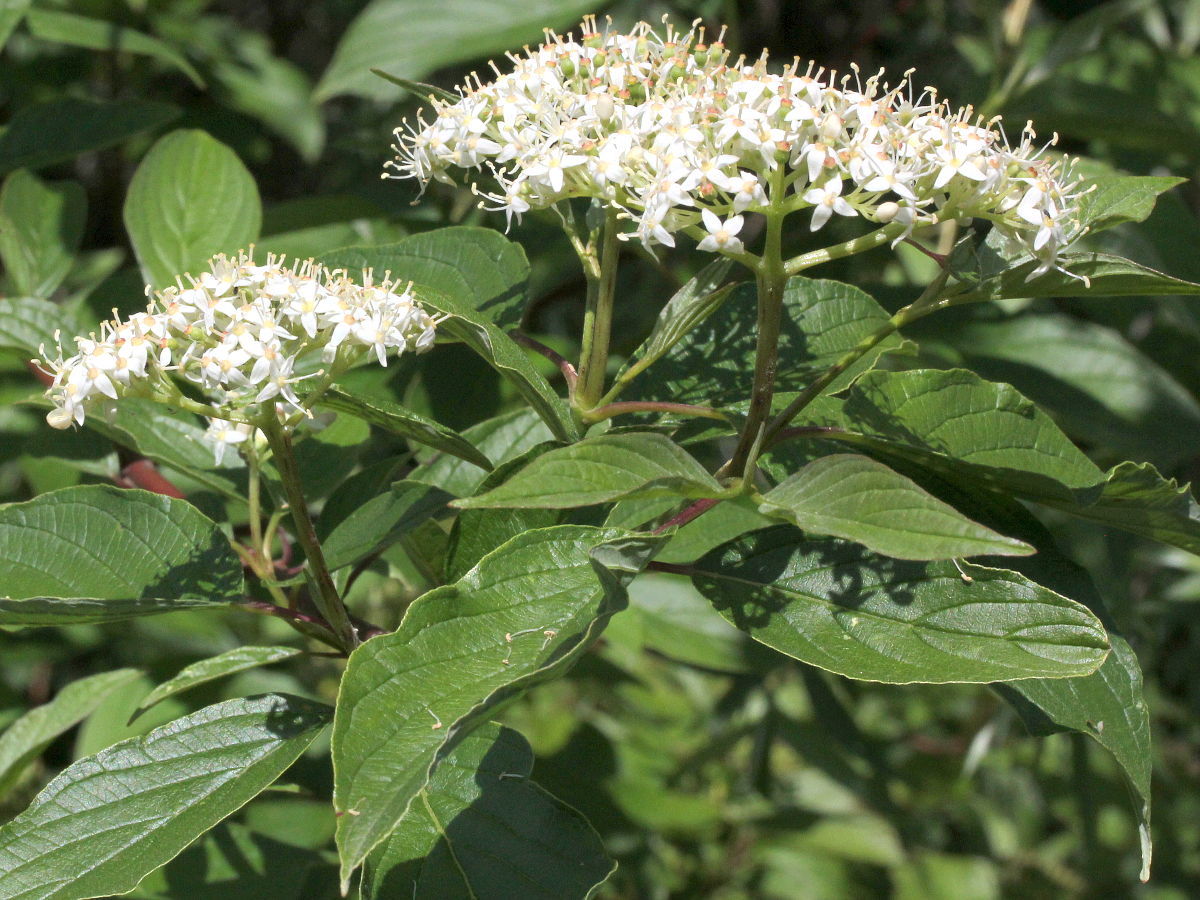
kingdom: Plantae
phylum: Tracheophyta
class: Magnoliopsida
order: Cornales
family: Cornaceae
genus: Cornus
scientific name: Cornus racemosa
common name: Panicled dogwood
